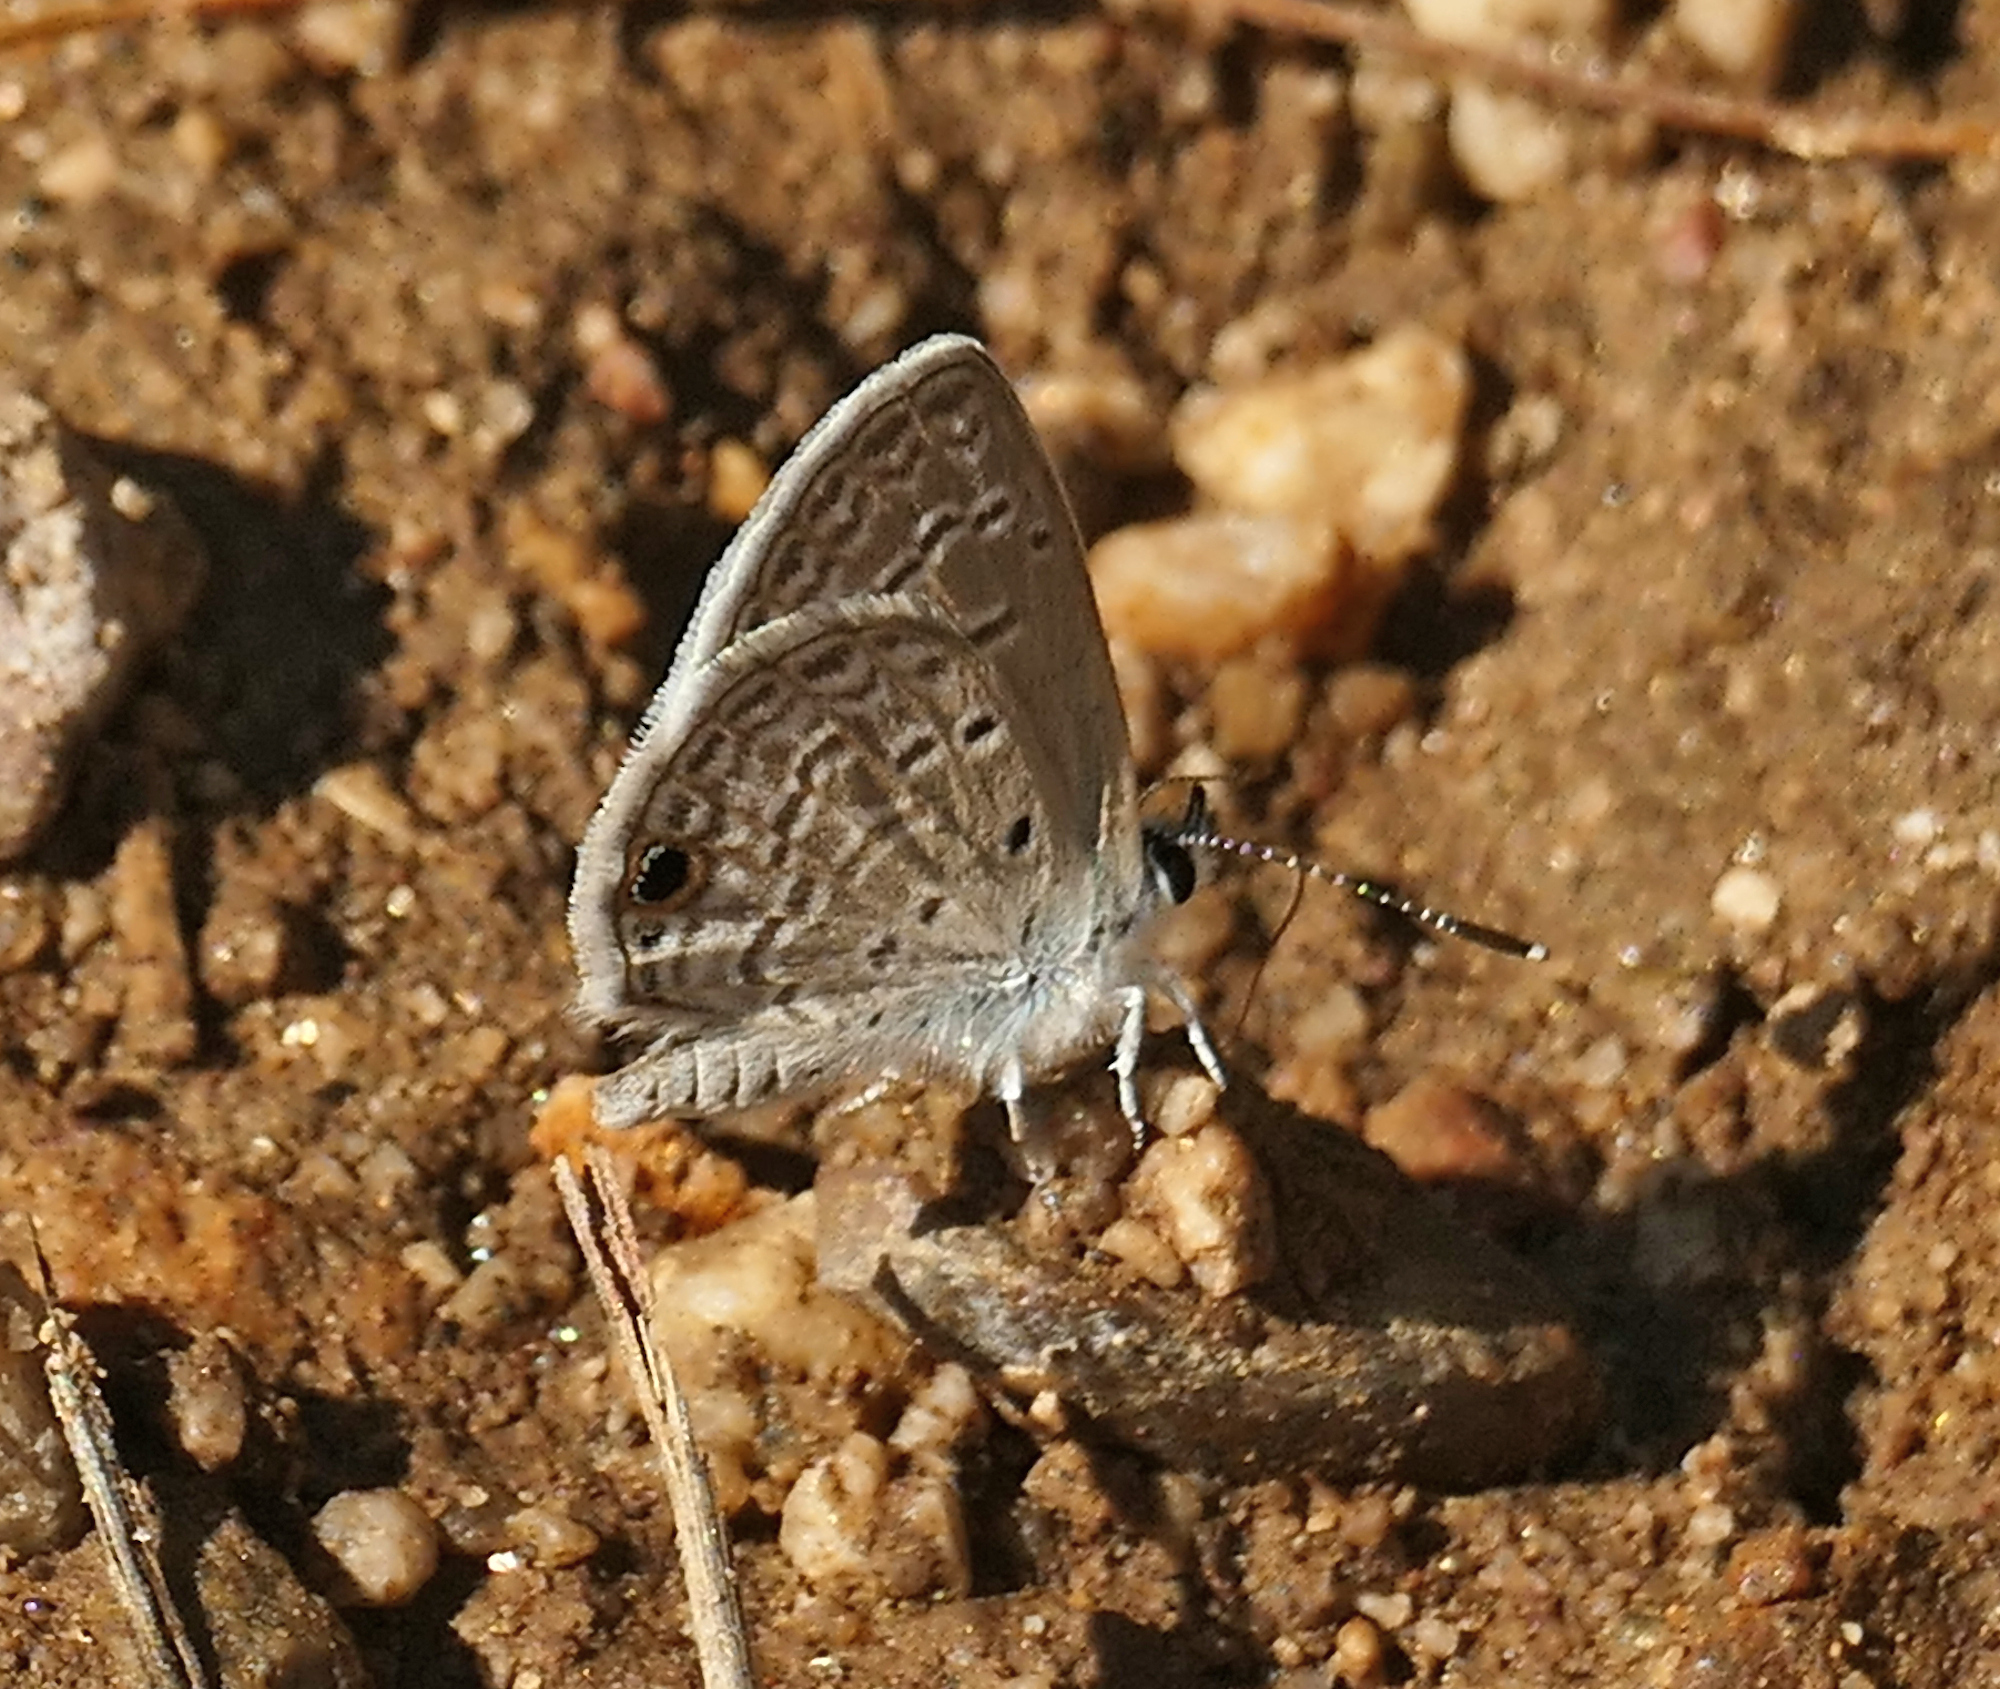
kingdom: Animalia
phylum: Arthropoda
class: Insecta
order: Lepidoptera
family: Lycaenidae
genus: Hemiargus
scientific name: Hemiargus ceraunus
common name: Ceraunus blue
